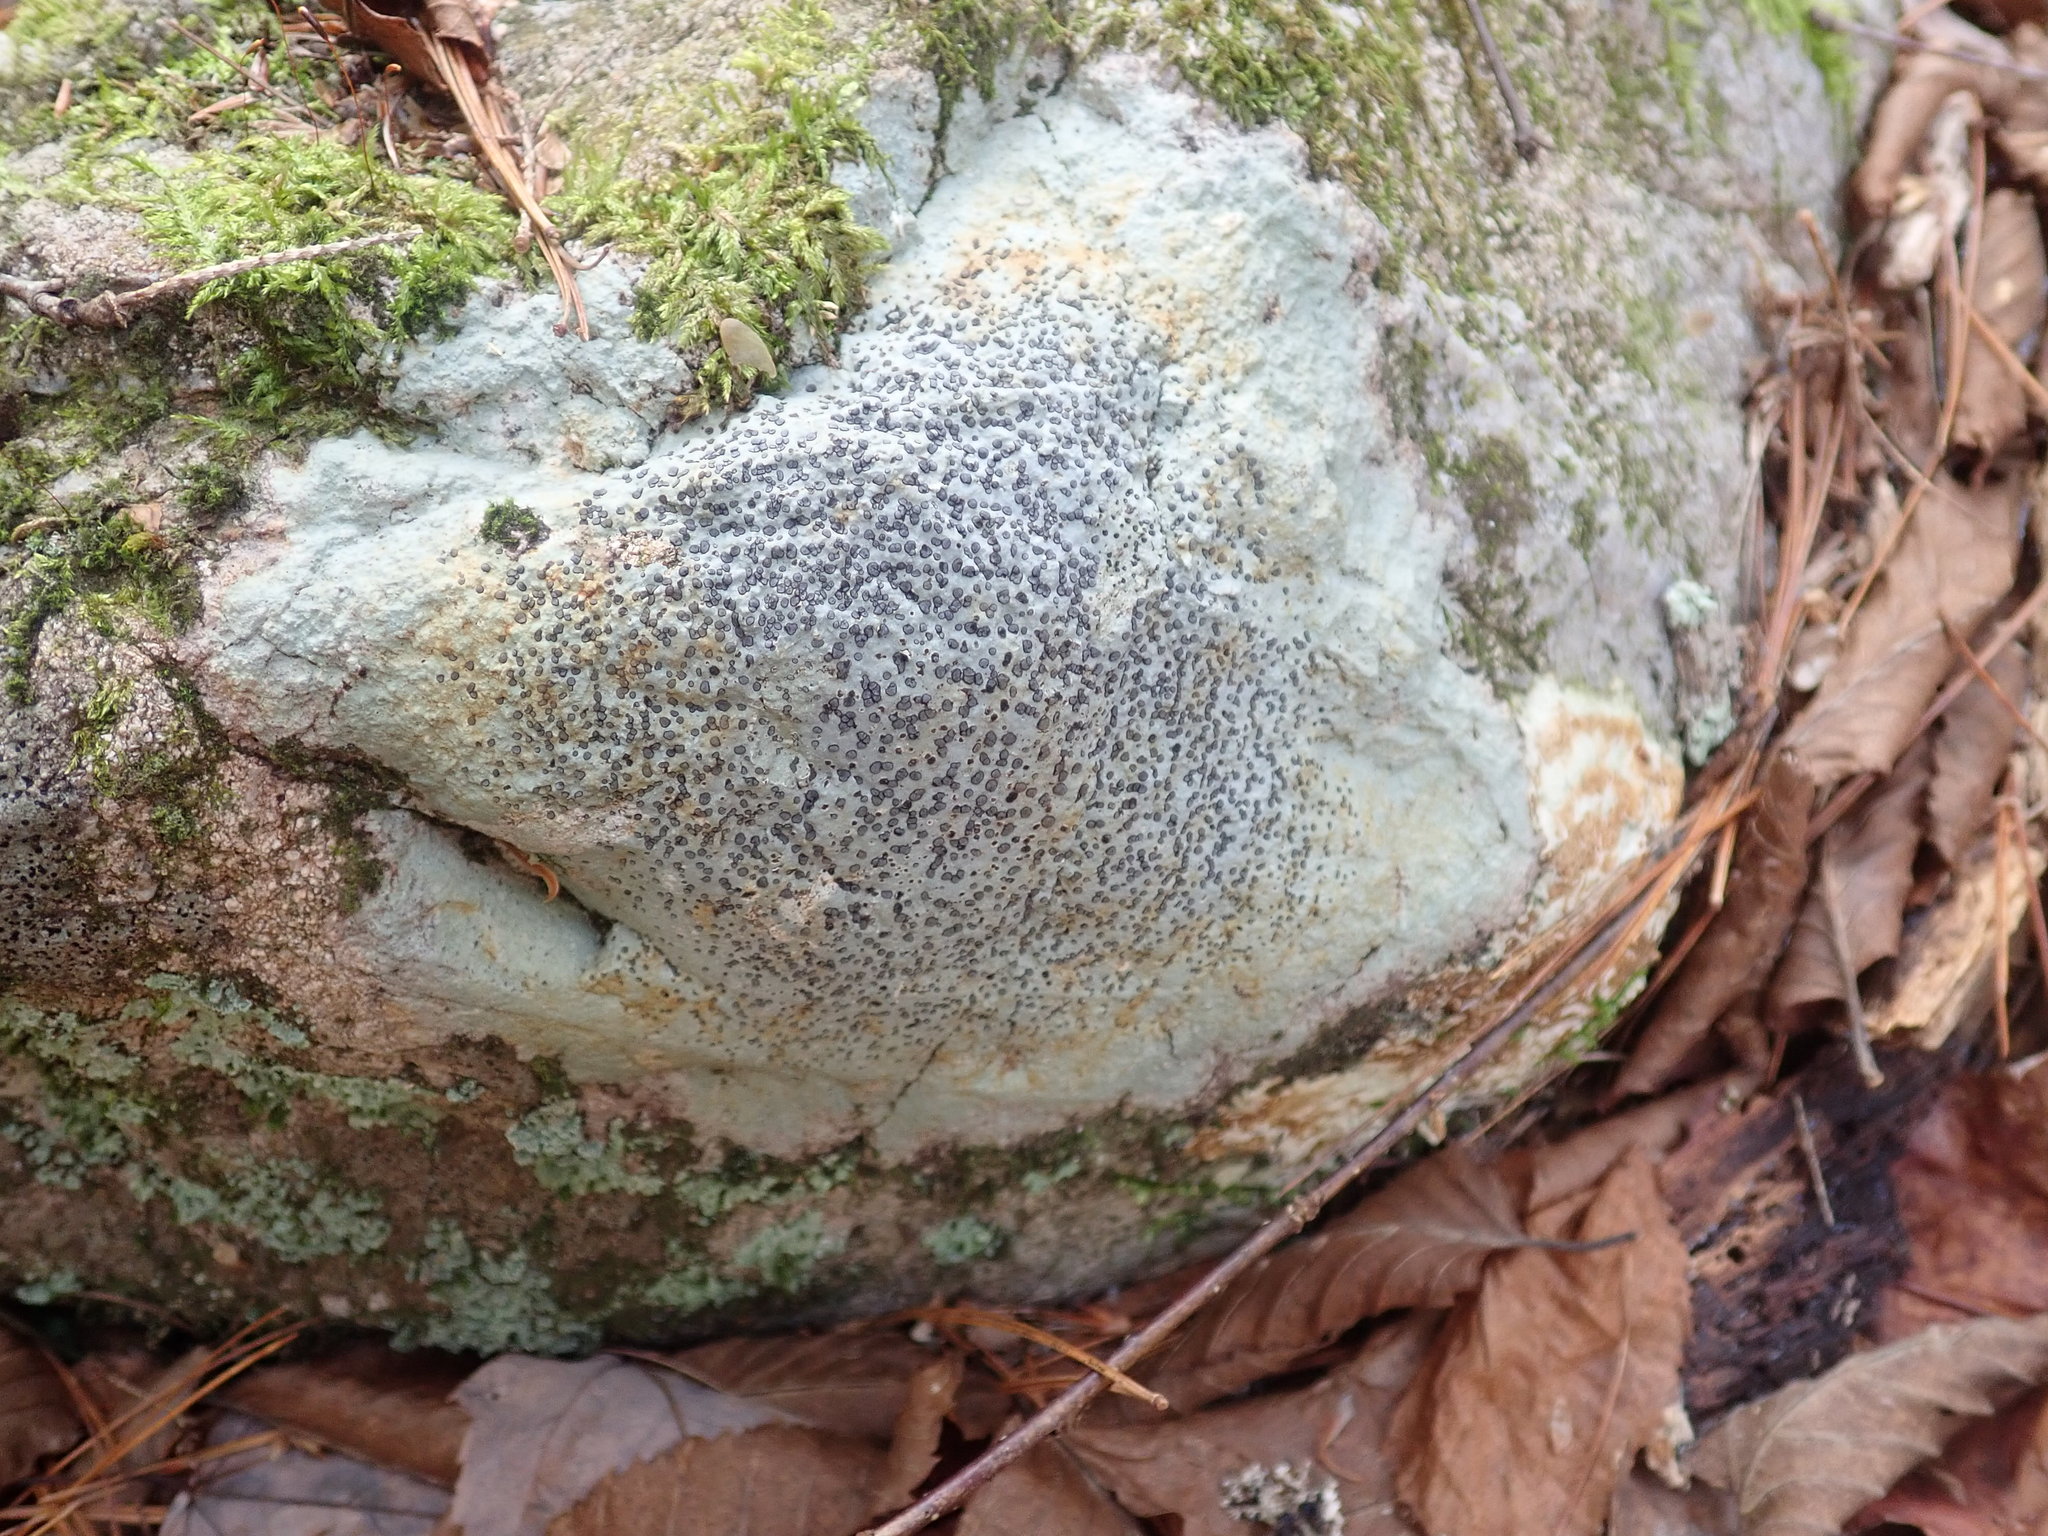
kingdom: Fungi
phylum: Ascomycota
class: Lecanoromycetes
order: Lecideales
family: Lecideaceae
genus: Porpidia
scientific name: Porpidia albocaerulescens
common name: Smokey-eyed boulder lichen
